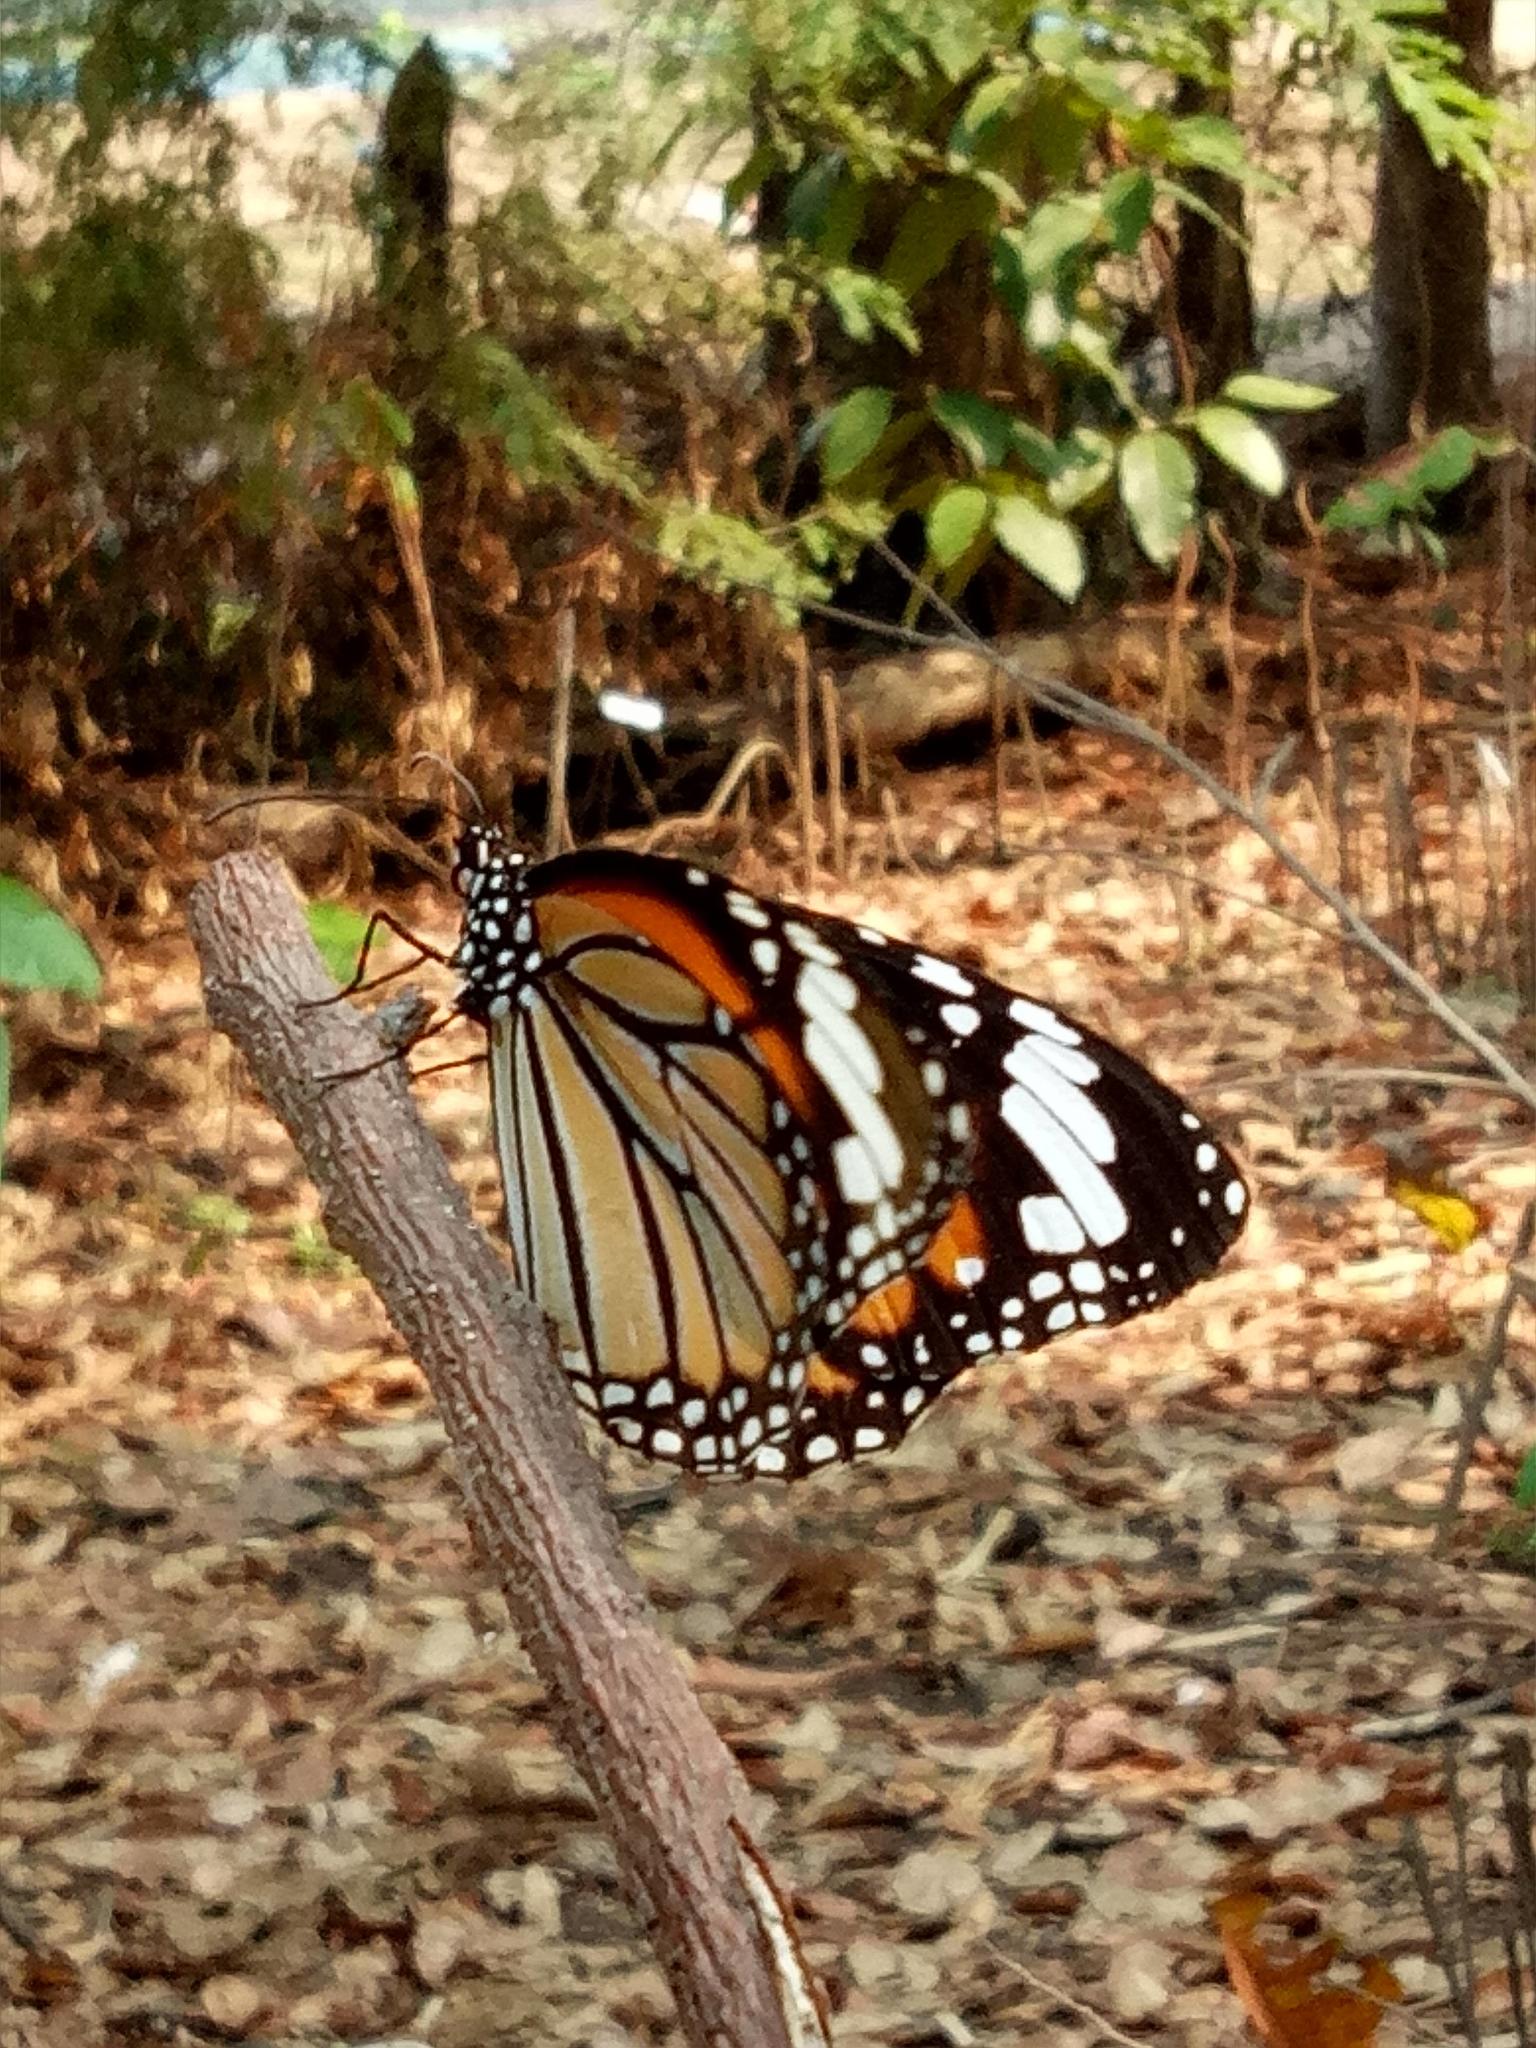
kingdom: Animalia
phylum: Arthropoda
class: Insecta
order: Lepidoptera
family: Nymphalidae
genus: Danaus
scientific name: Danaus genutia
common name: Common tiger butterfly
